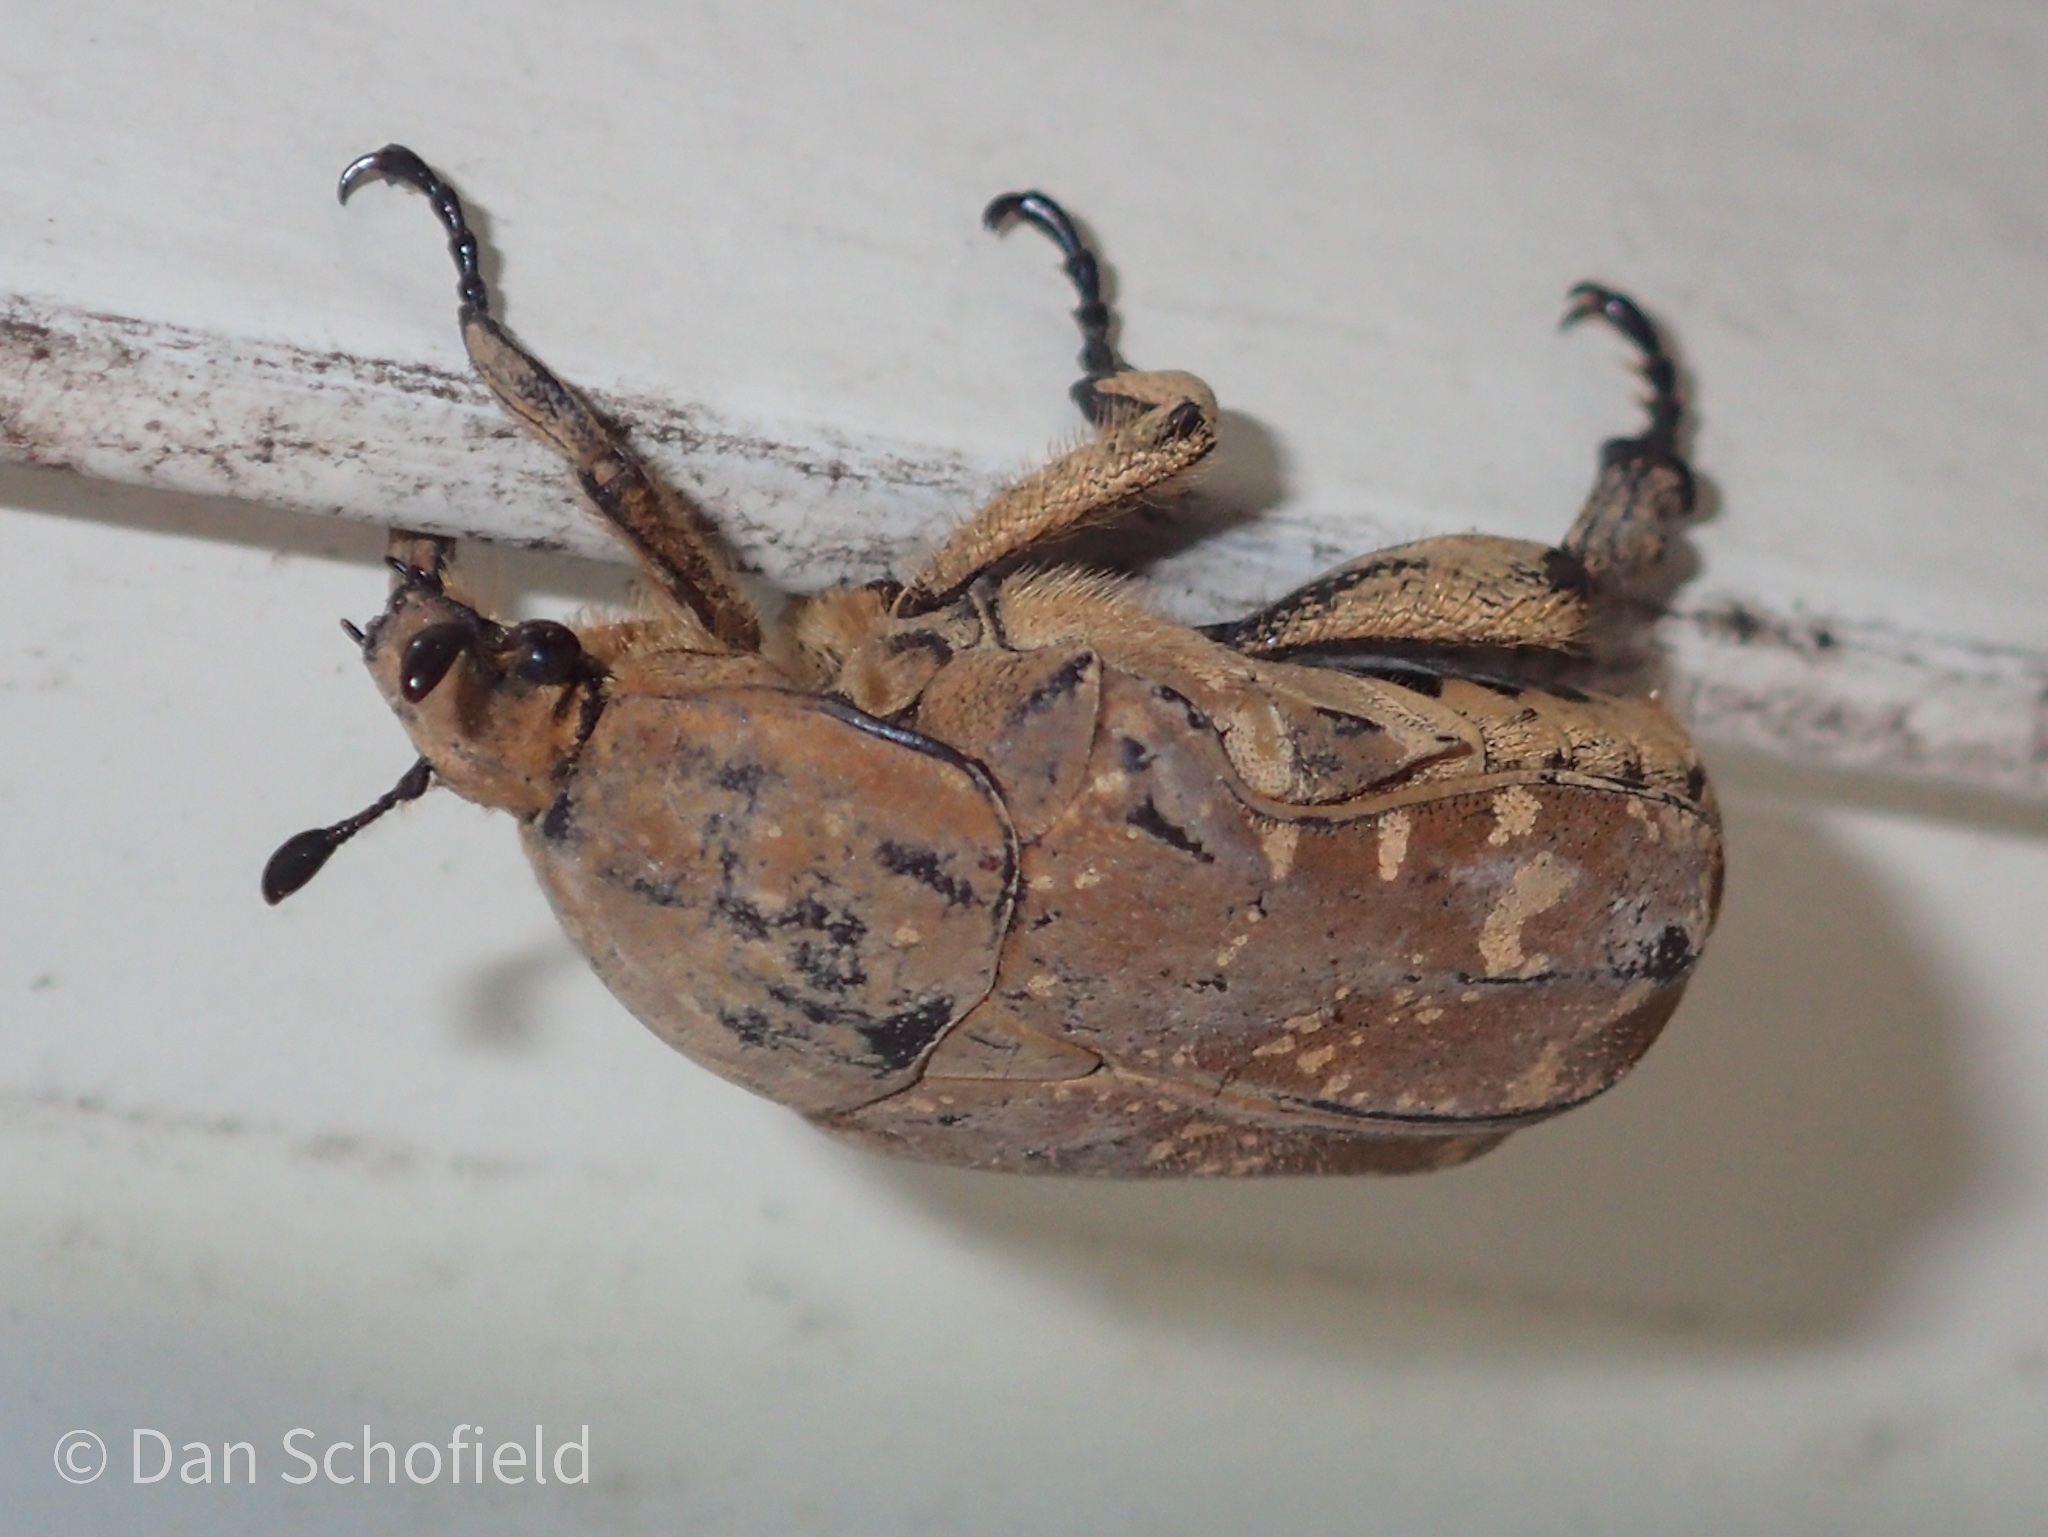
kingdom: Animalia
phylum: Arthropoda
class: Insecta
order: Coleoptera
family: Scarabaeidae
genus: Protaetia
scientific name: Protaetia culta
